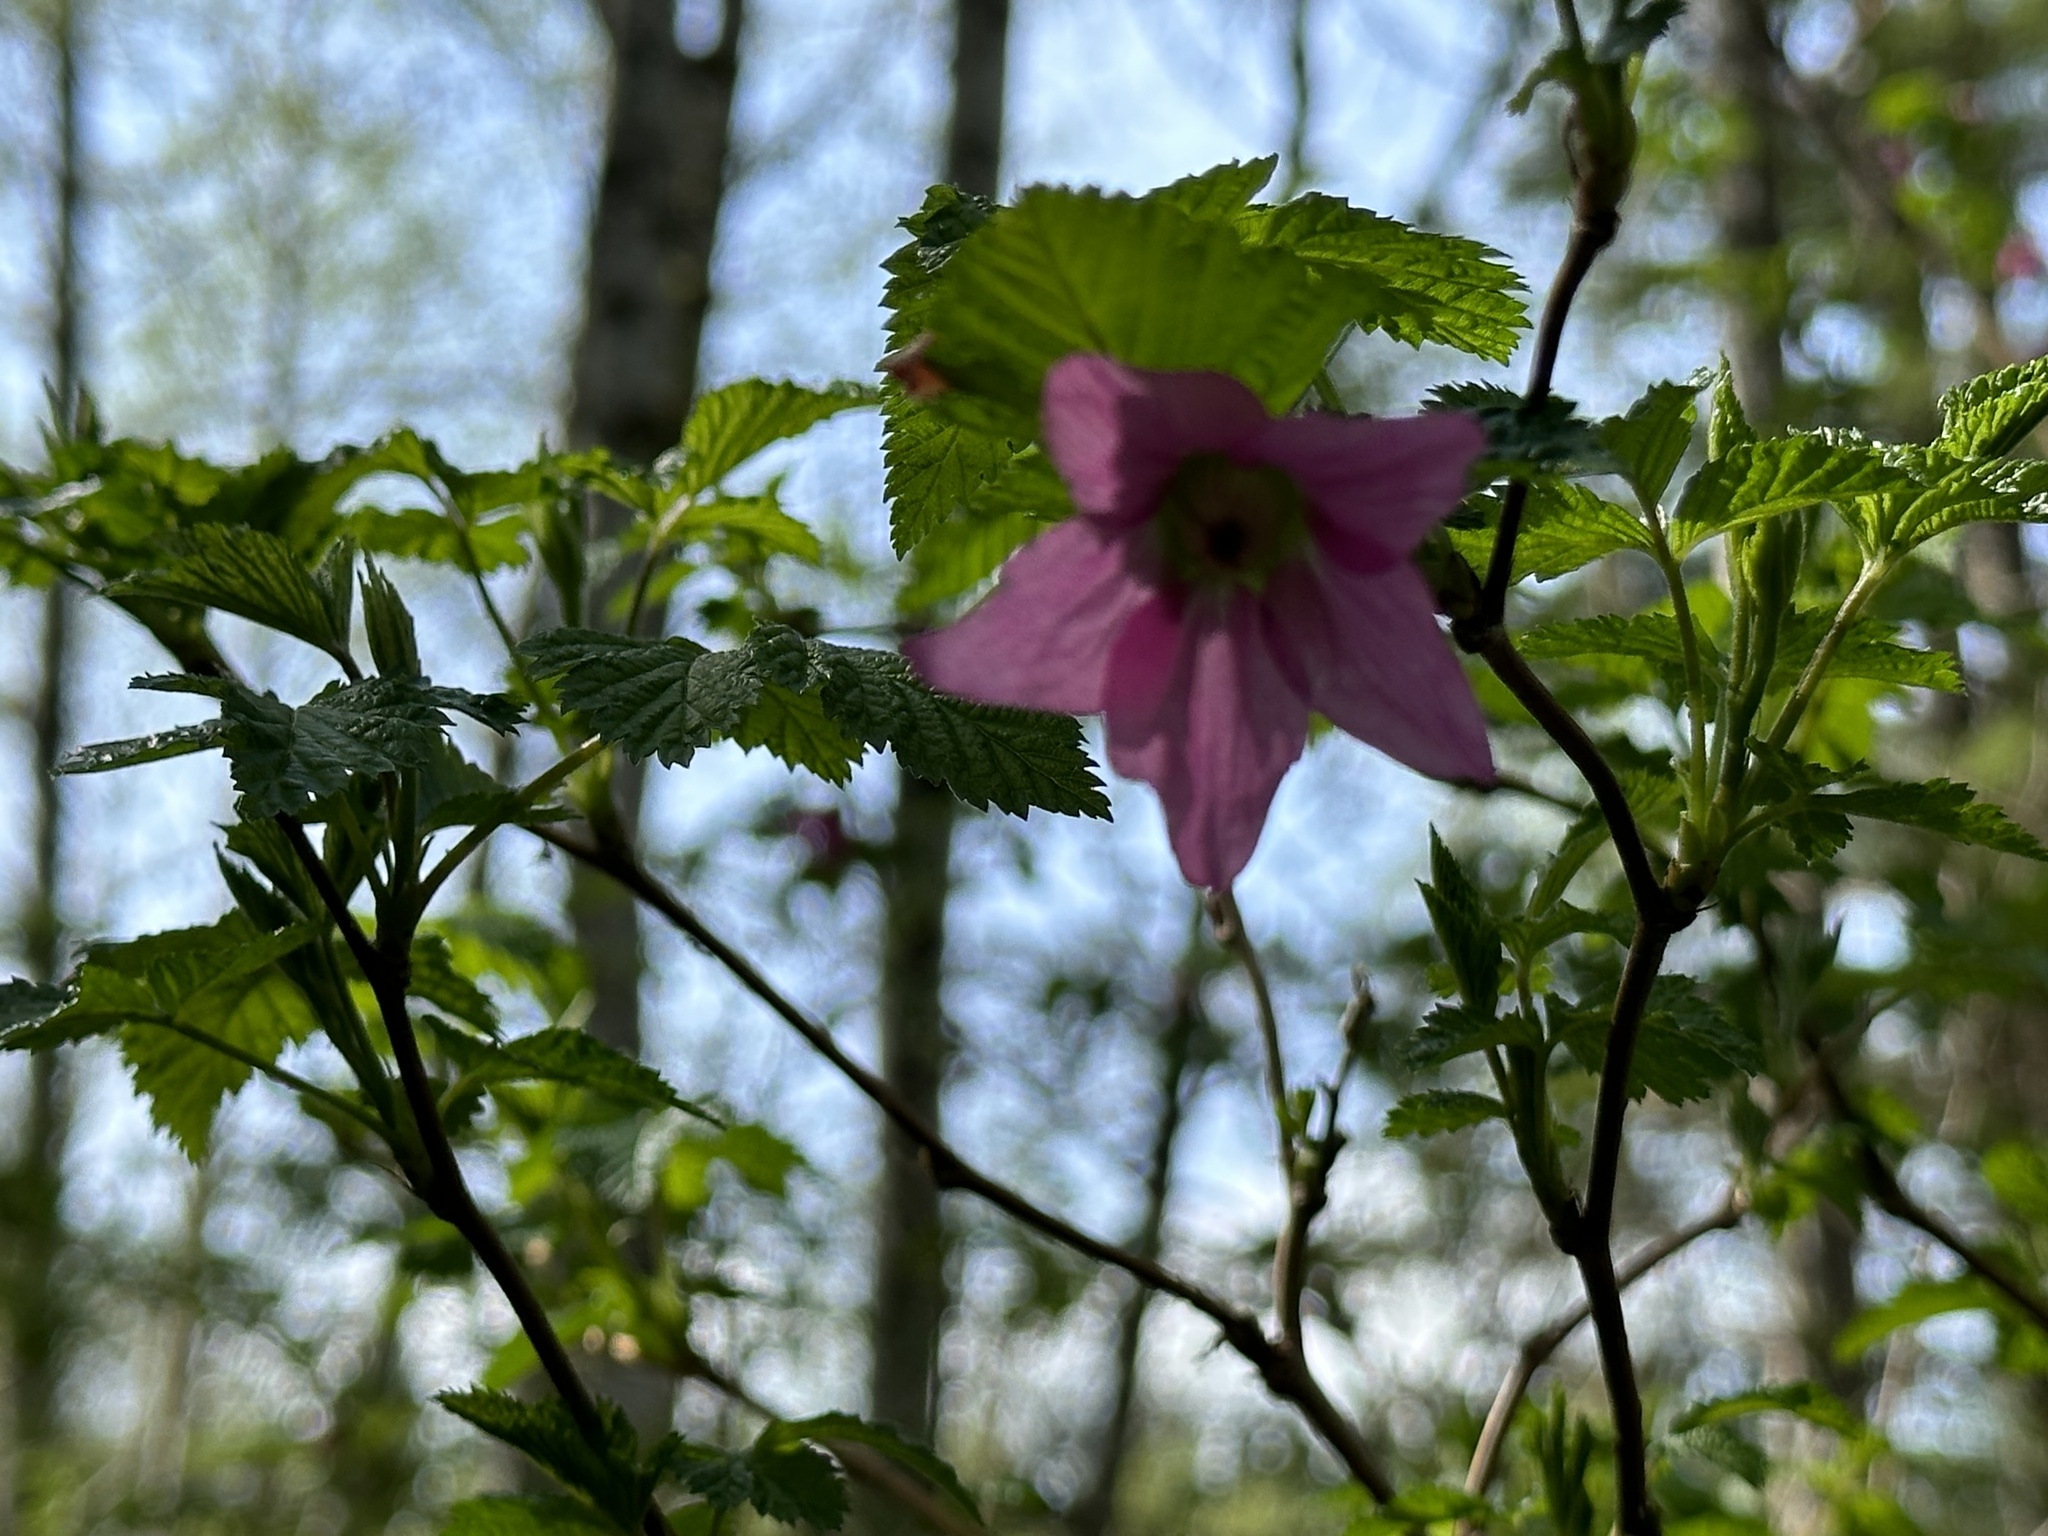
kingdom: Plantae
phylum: Tracheophyta
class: Magnoliopsida
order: Rosales
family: Rosaceae
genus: Rubus
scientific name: Rubus spectabilis
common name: Salmonberry
